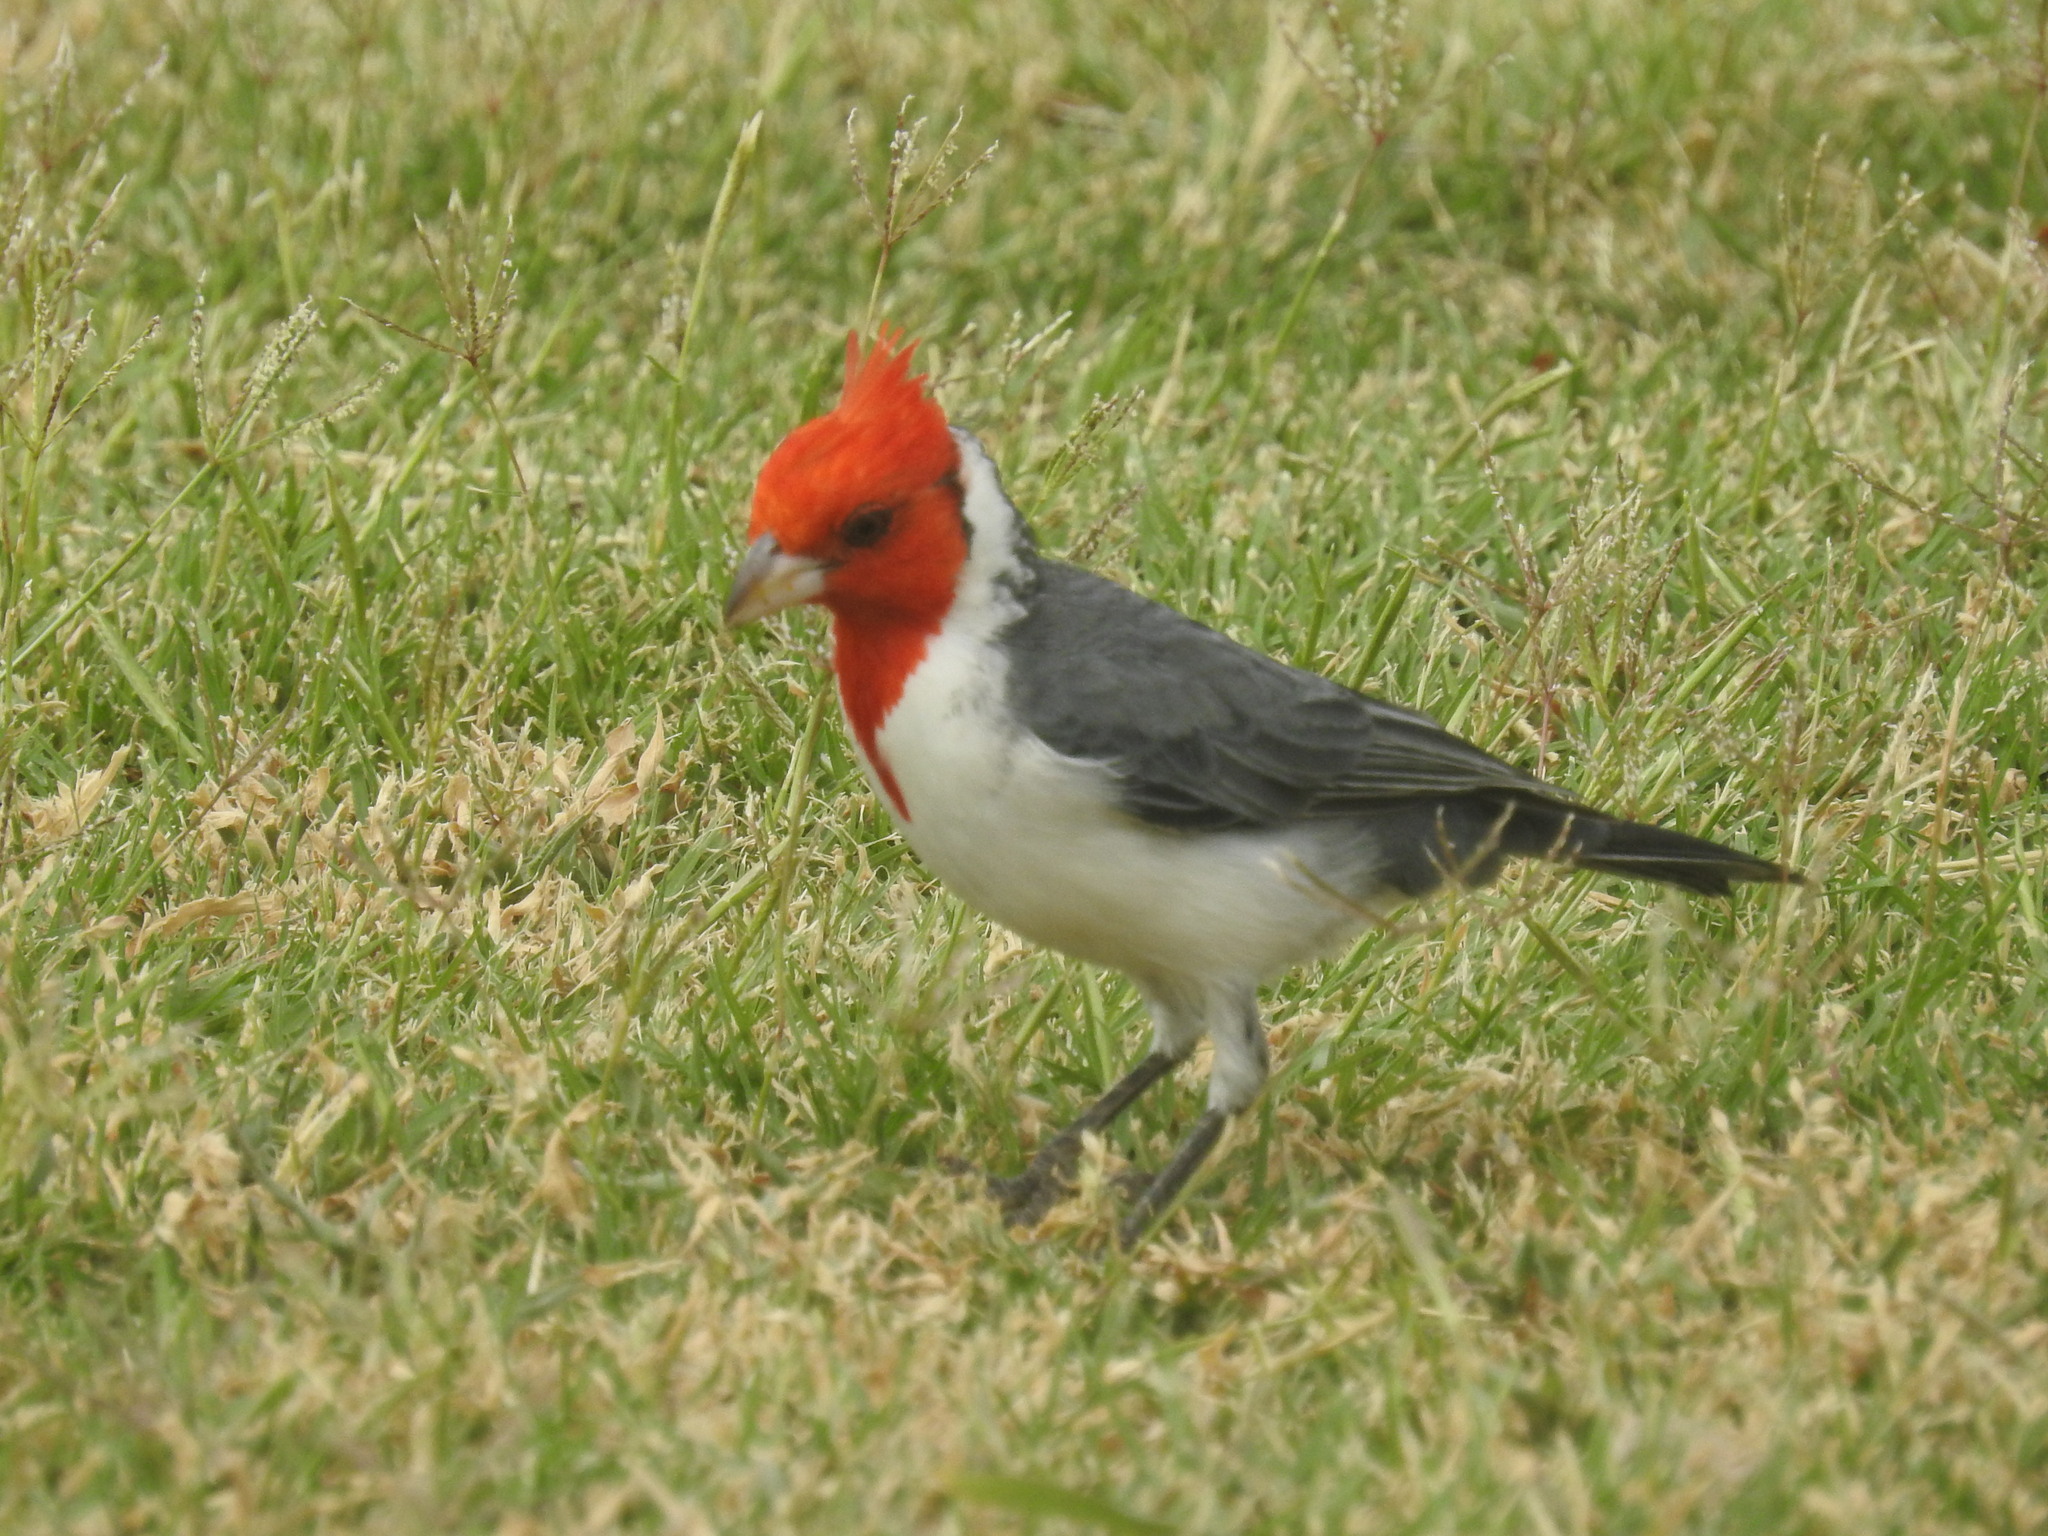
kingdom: Animalia
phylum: Chordata
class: Aves
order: Passeriformes
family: Thraupidae
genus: Paroaria
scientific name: Paroaria coronata
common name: Red-crested cardinal
